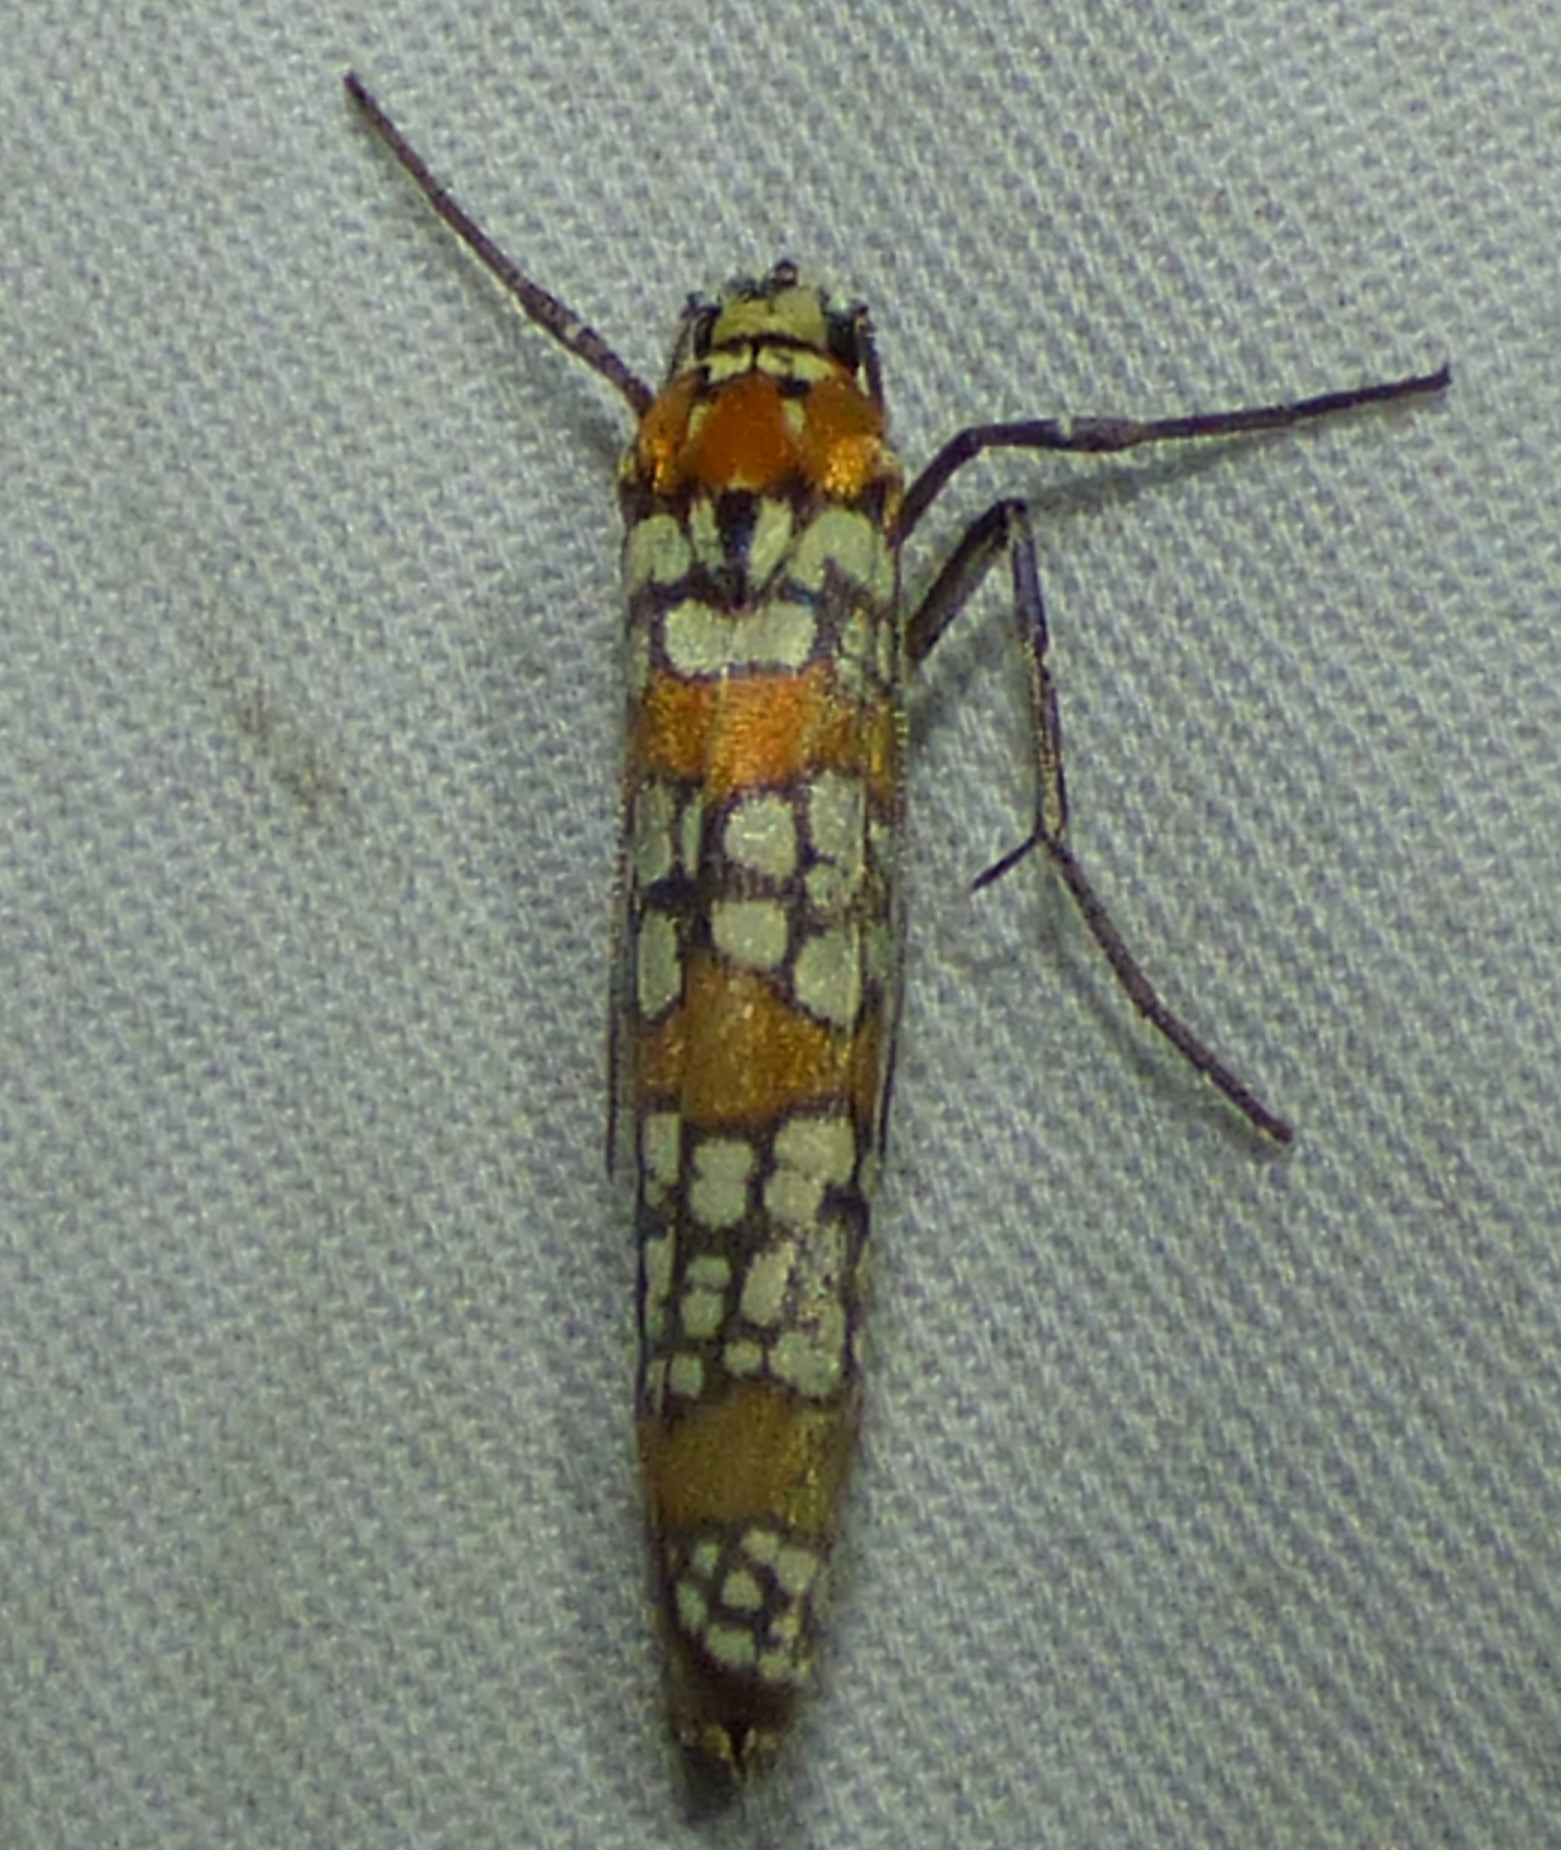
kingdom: Animalia
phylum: Arthropoda
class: Insecta
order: Lepidoptera
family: Attevidae
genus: Atteva
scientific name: Atteva punctella
